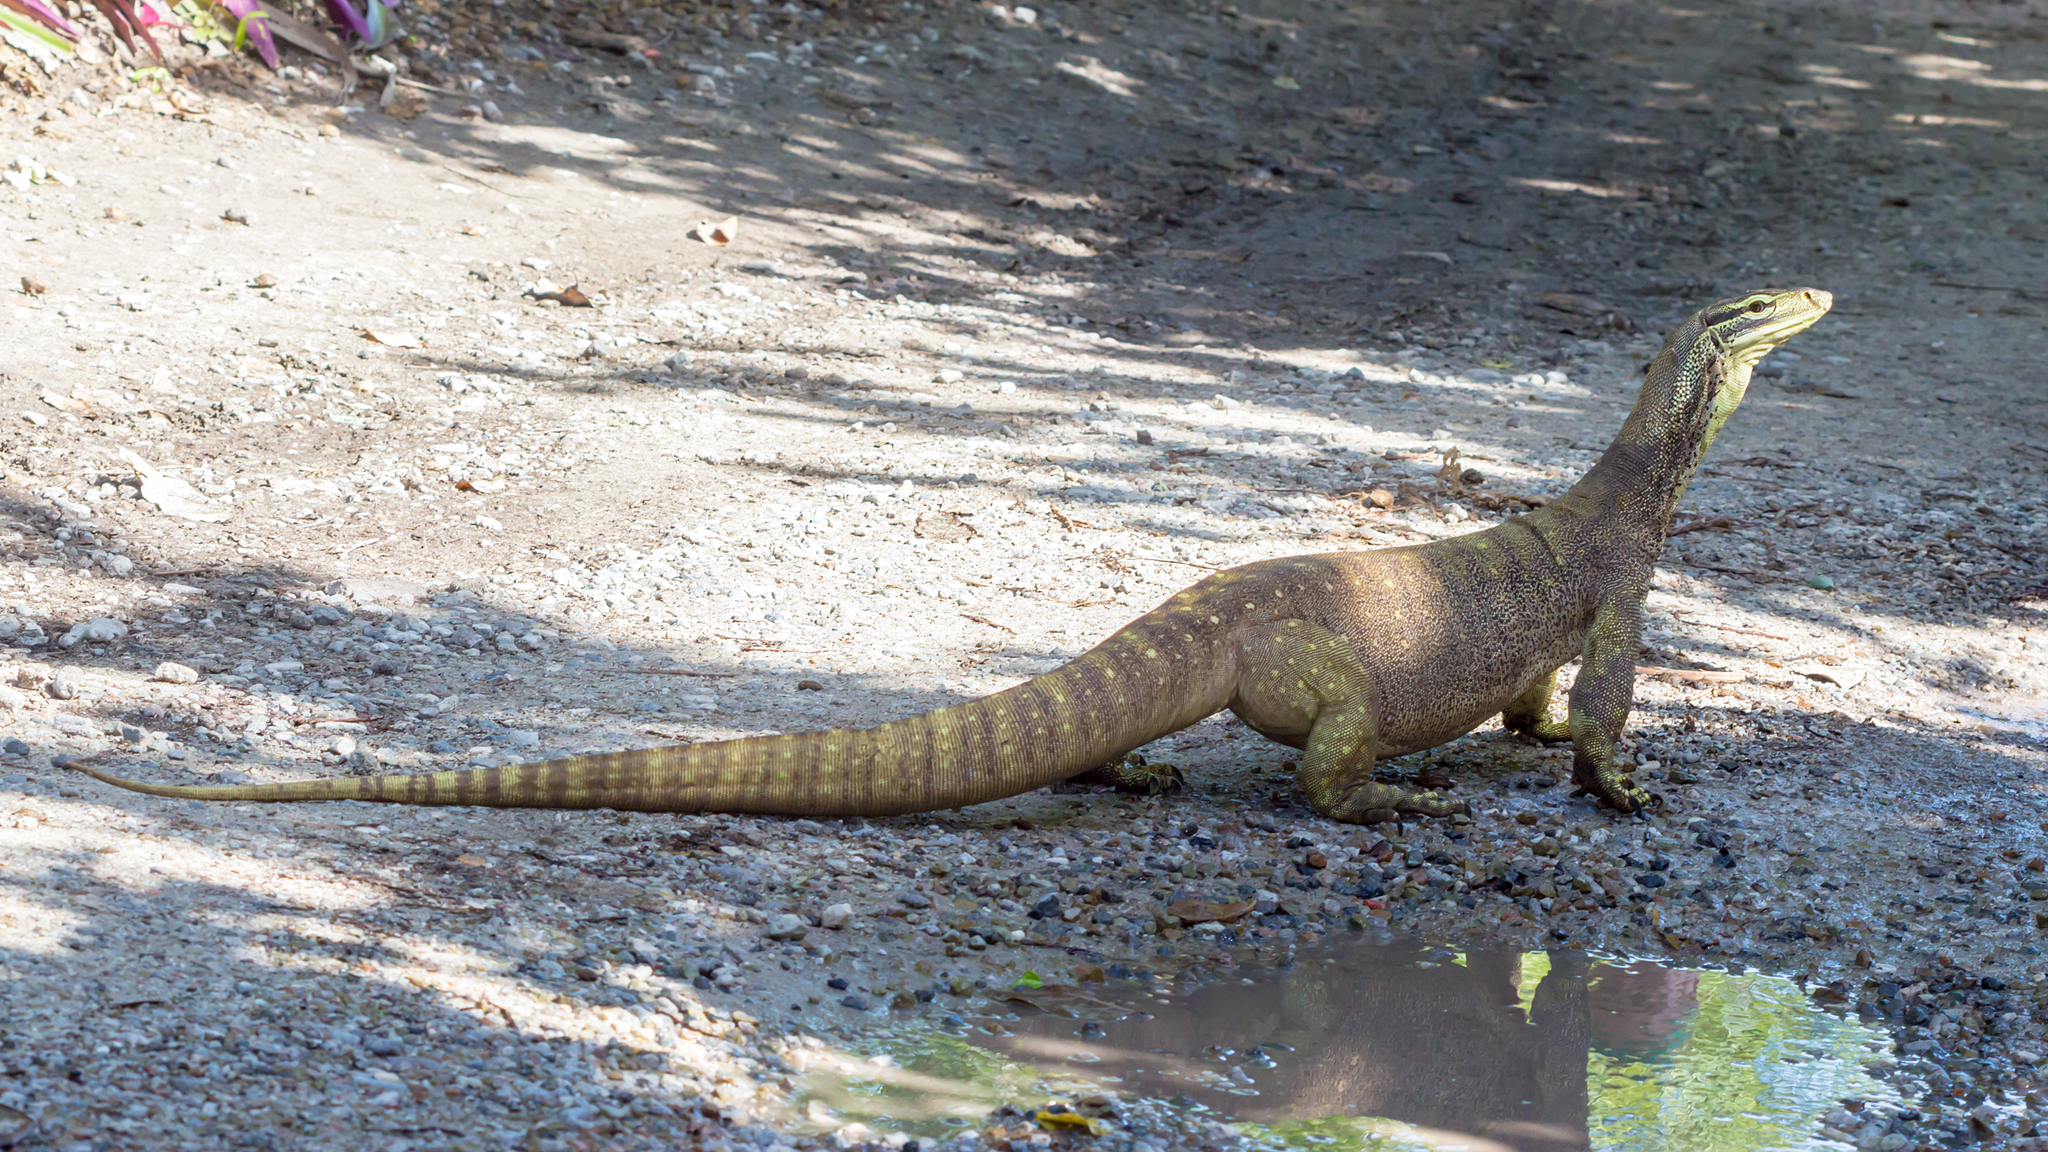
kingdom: Animalia
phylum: Chordata
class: Squamata
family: Varanidae
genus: Varanus
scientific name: Varanus panoptes
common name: Yellow-spotted monitor
